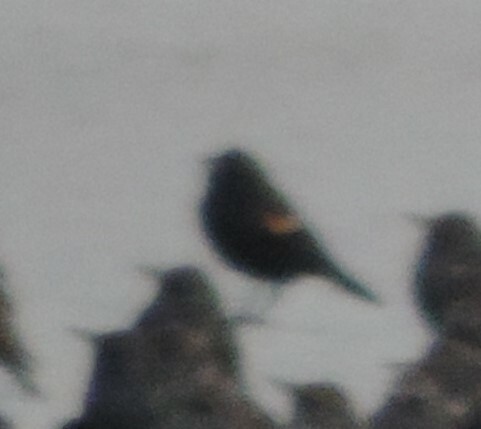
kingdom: Animalia
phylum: Chordata
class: Aves
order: Passeriformes
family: Icteridae
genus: Agelaius
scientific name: Agelaius phoeniceus
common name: Red-winged blackbird
